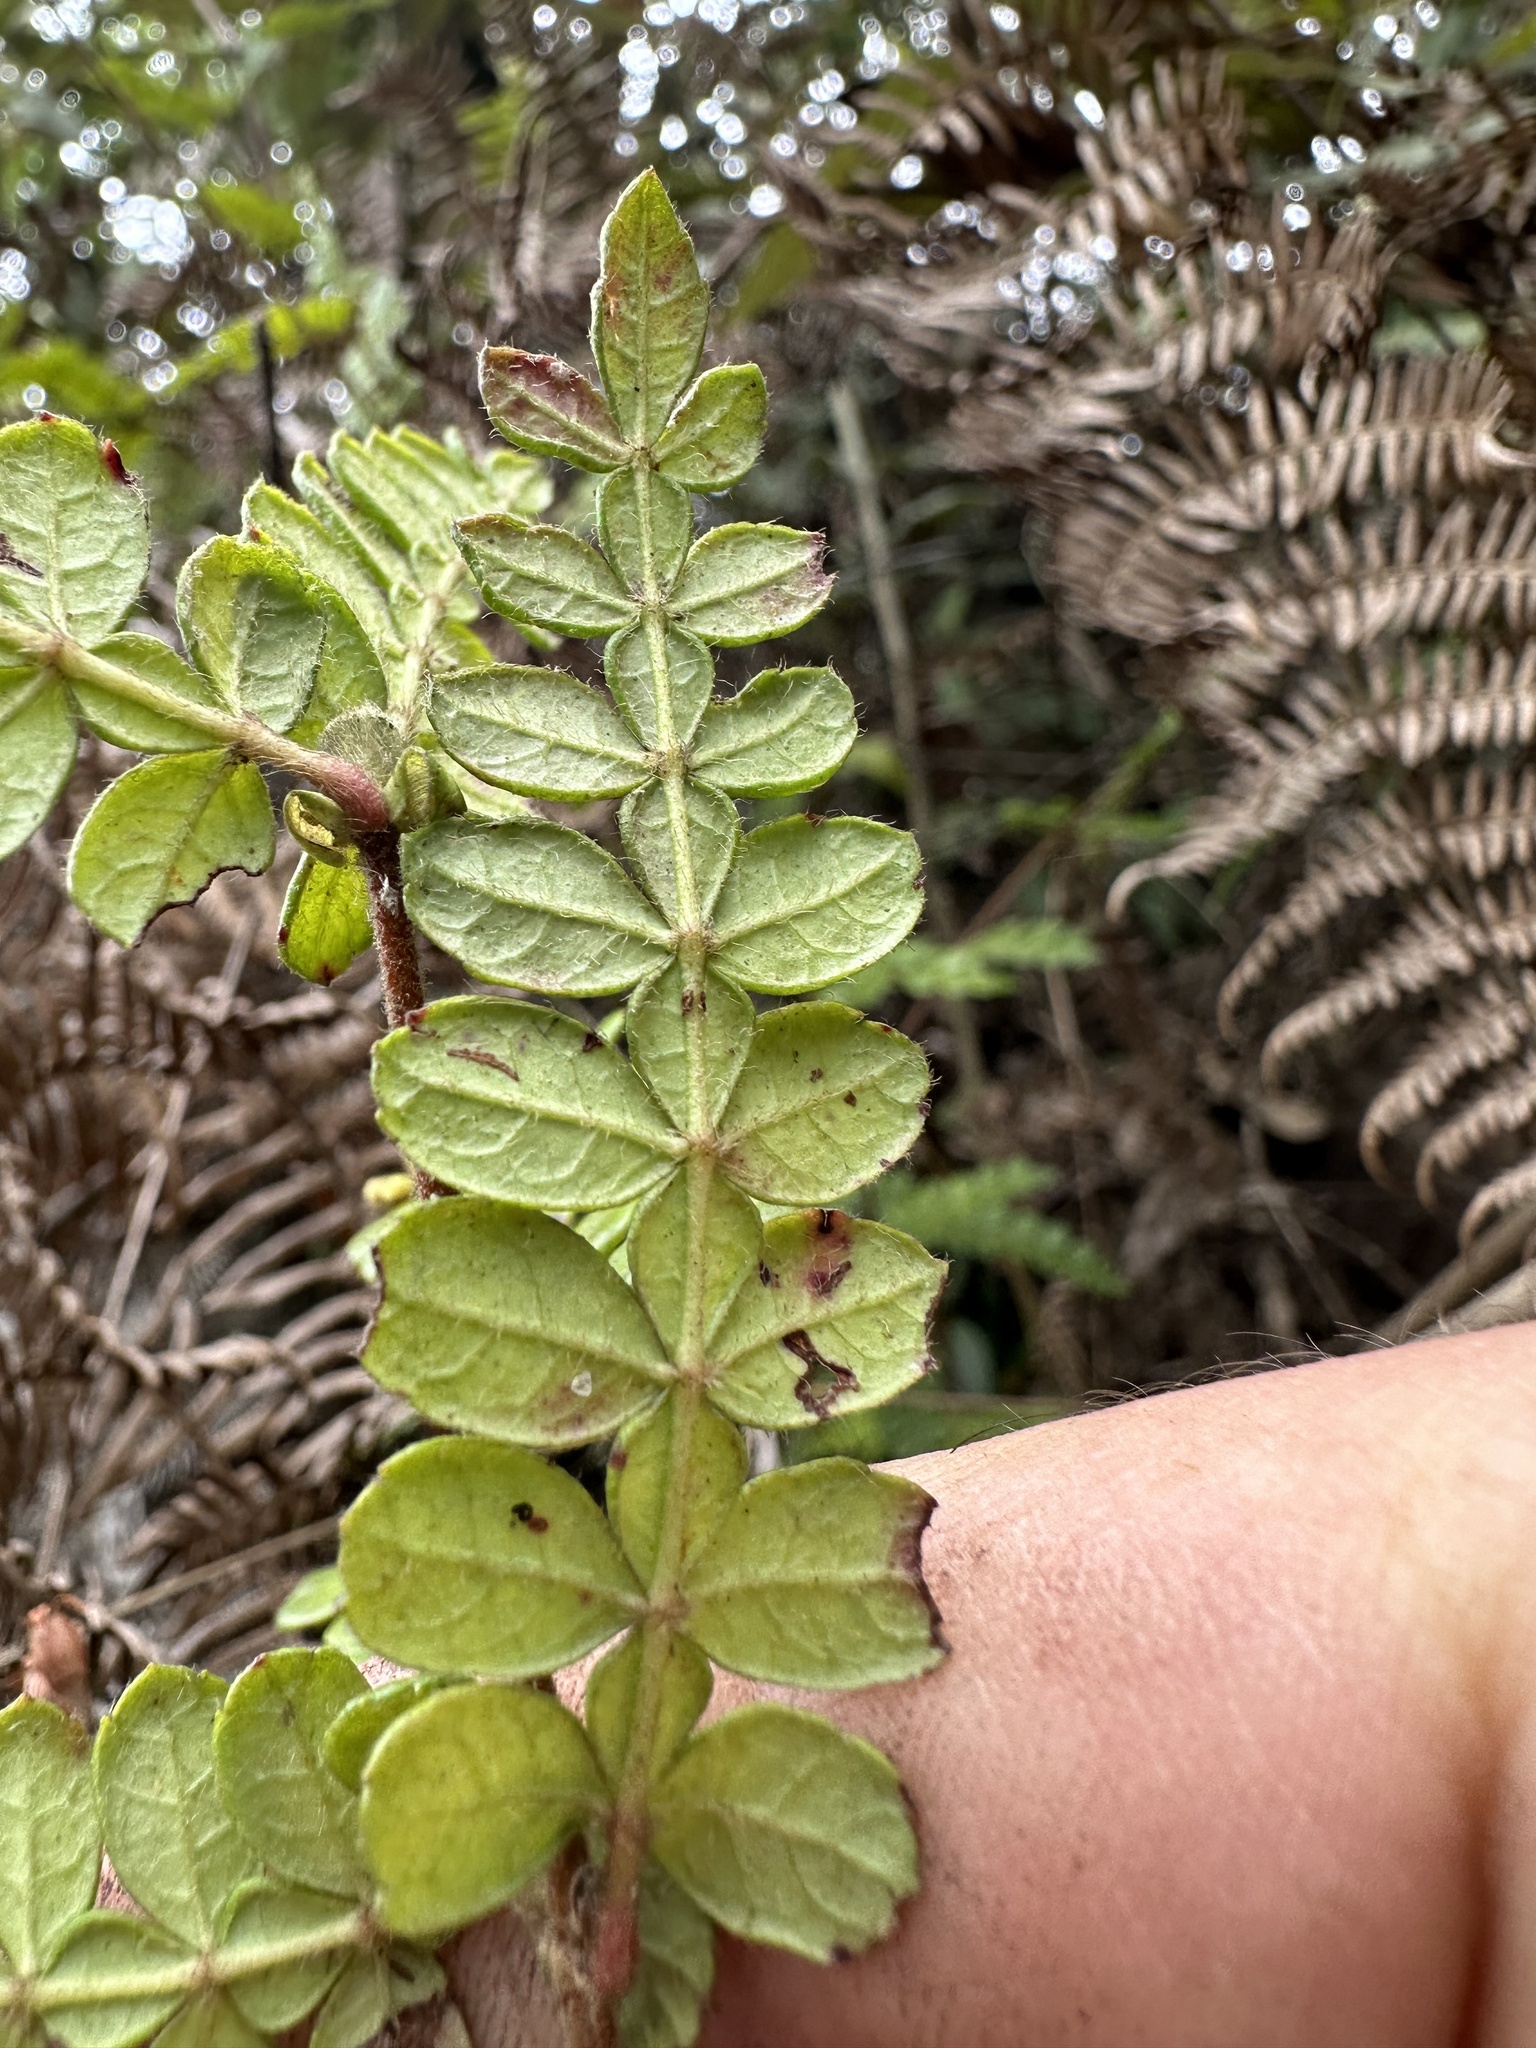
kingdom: Plantae
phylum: Tracheophyta
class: Magnoliopsida
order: Oxalidales
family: Cunoniaceae
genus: Weinmannia
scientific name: Weinmannia tomentosa
